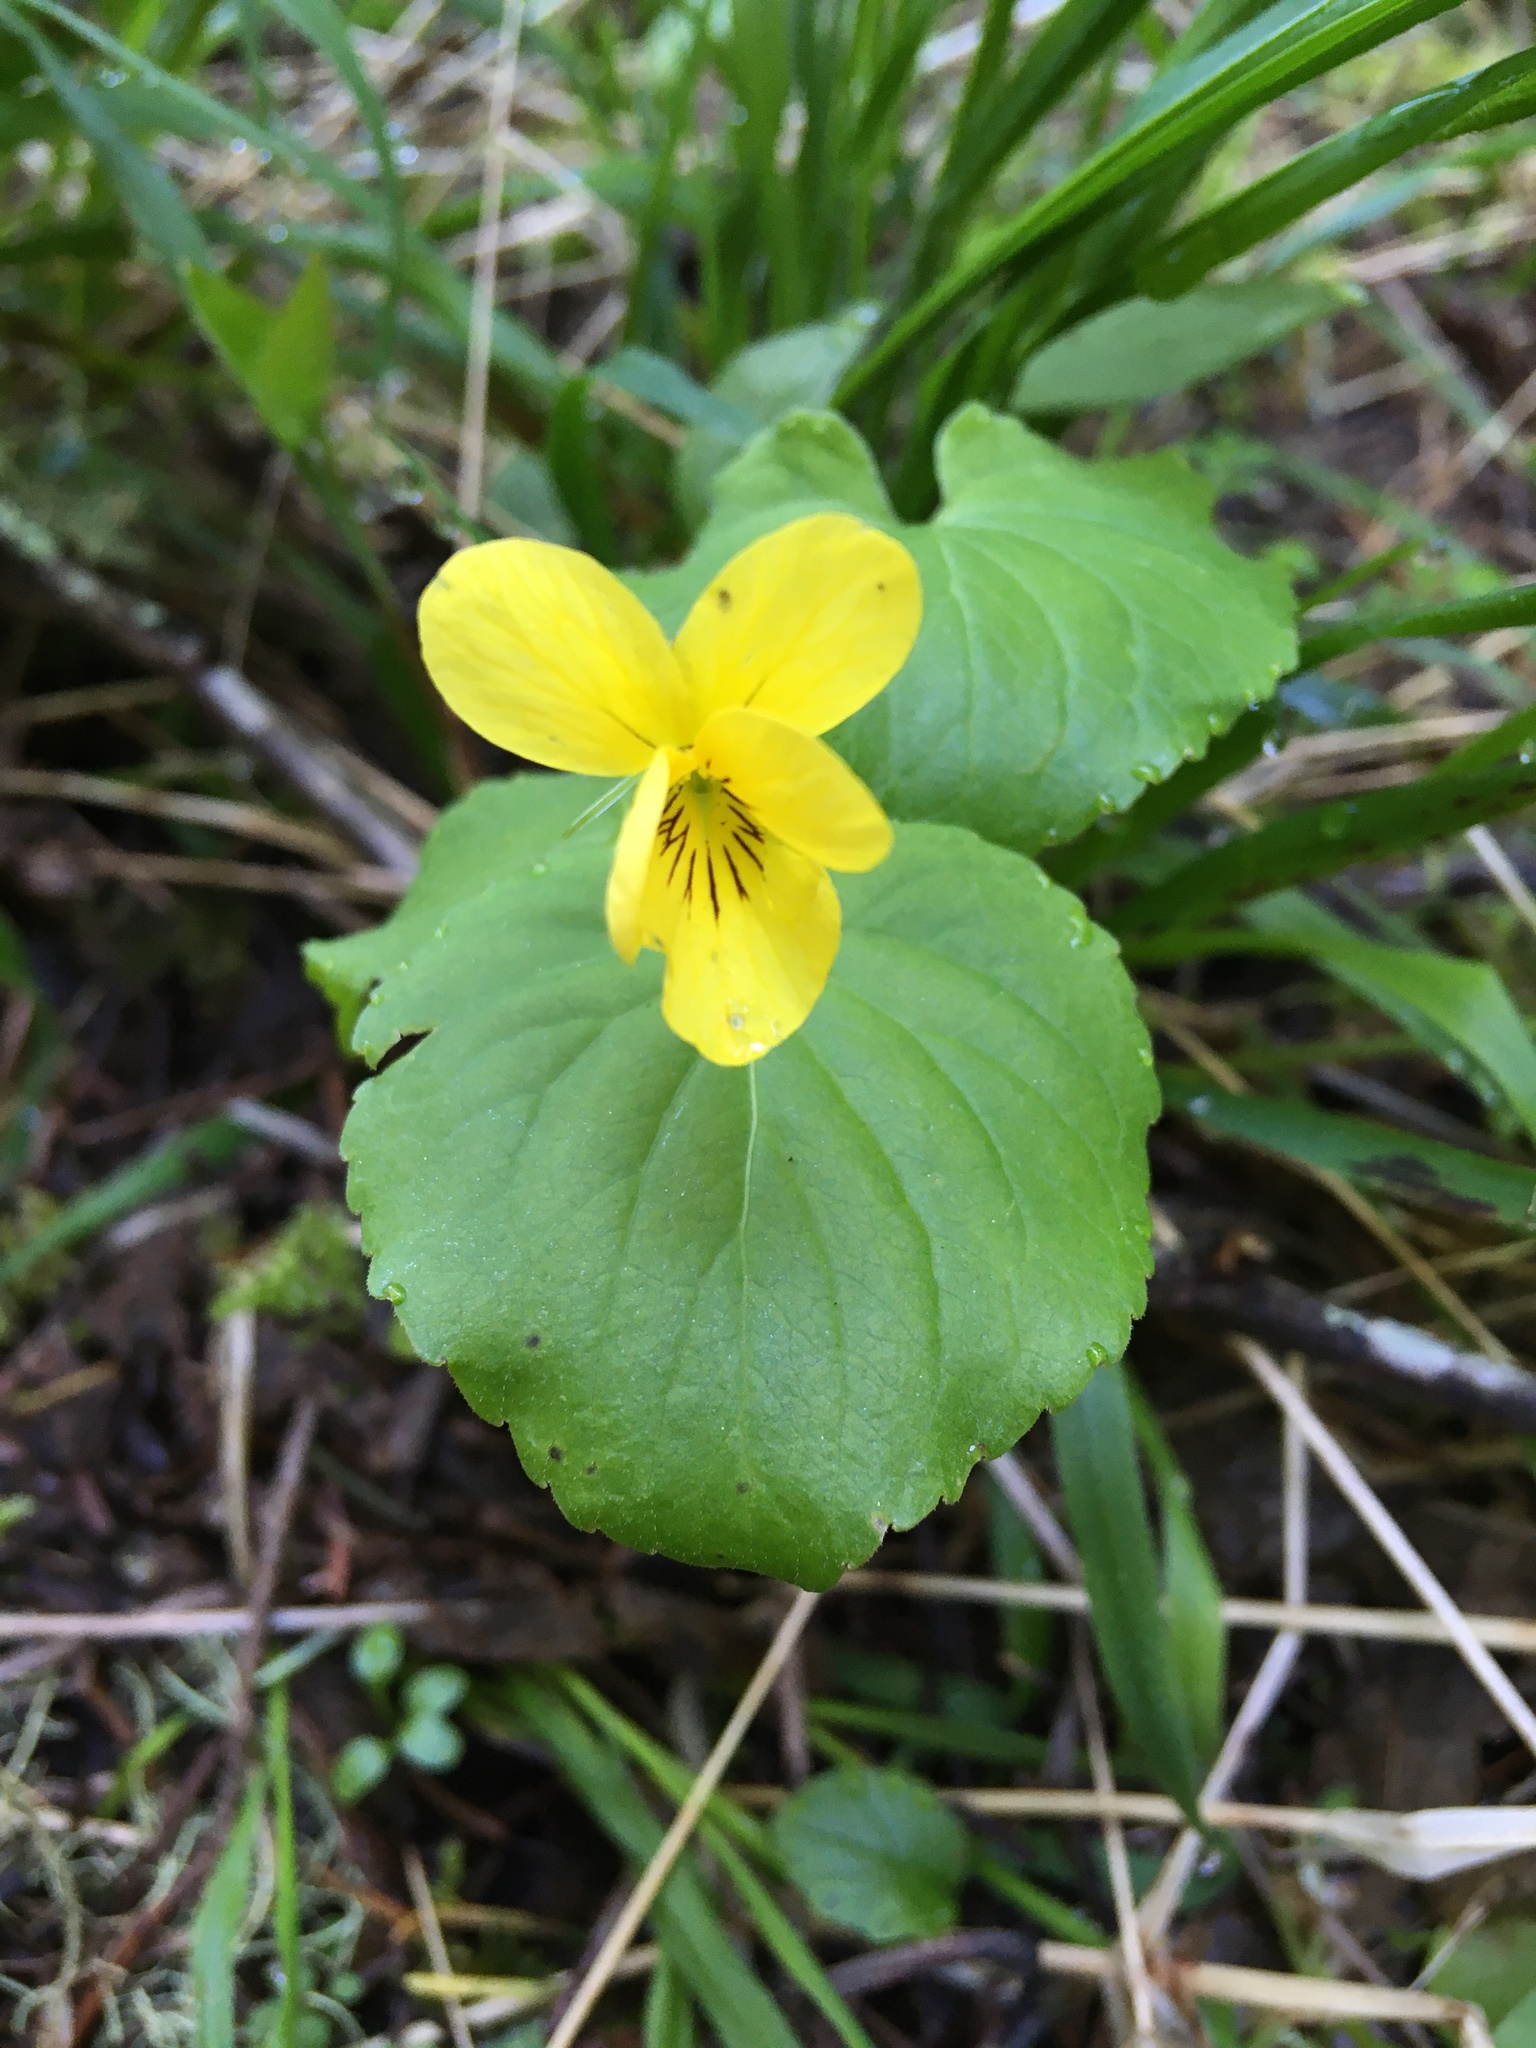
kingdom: Plantae
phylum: Tracheophyta
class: Magnoliopsida
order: Malpighiales
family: Violaceae
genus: Viola
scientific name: Viola glabella
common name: Stream violet
